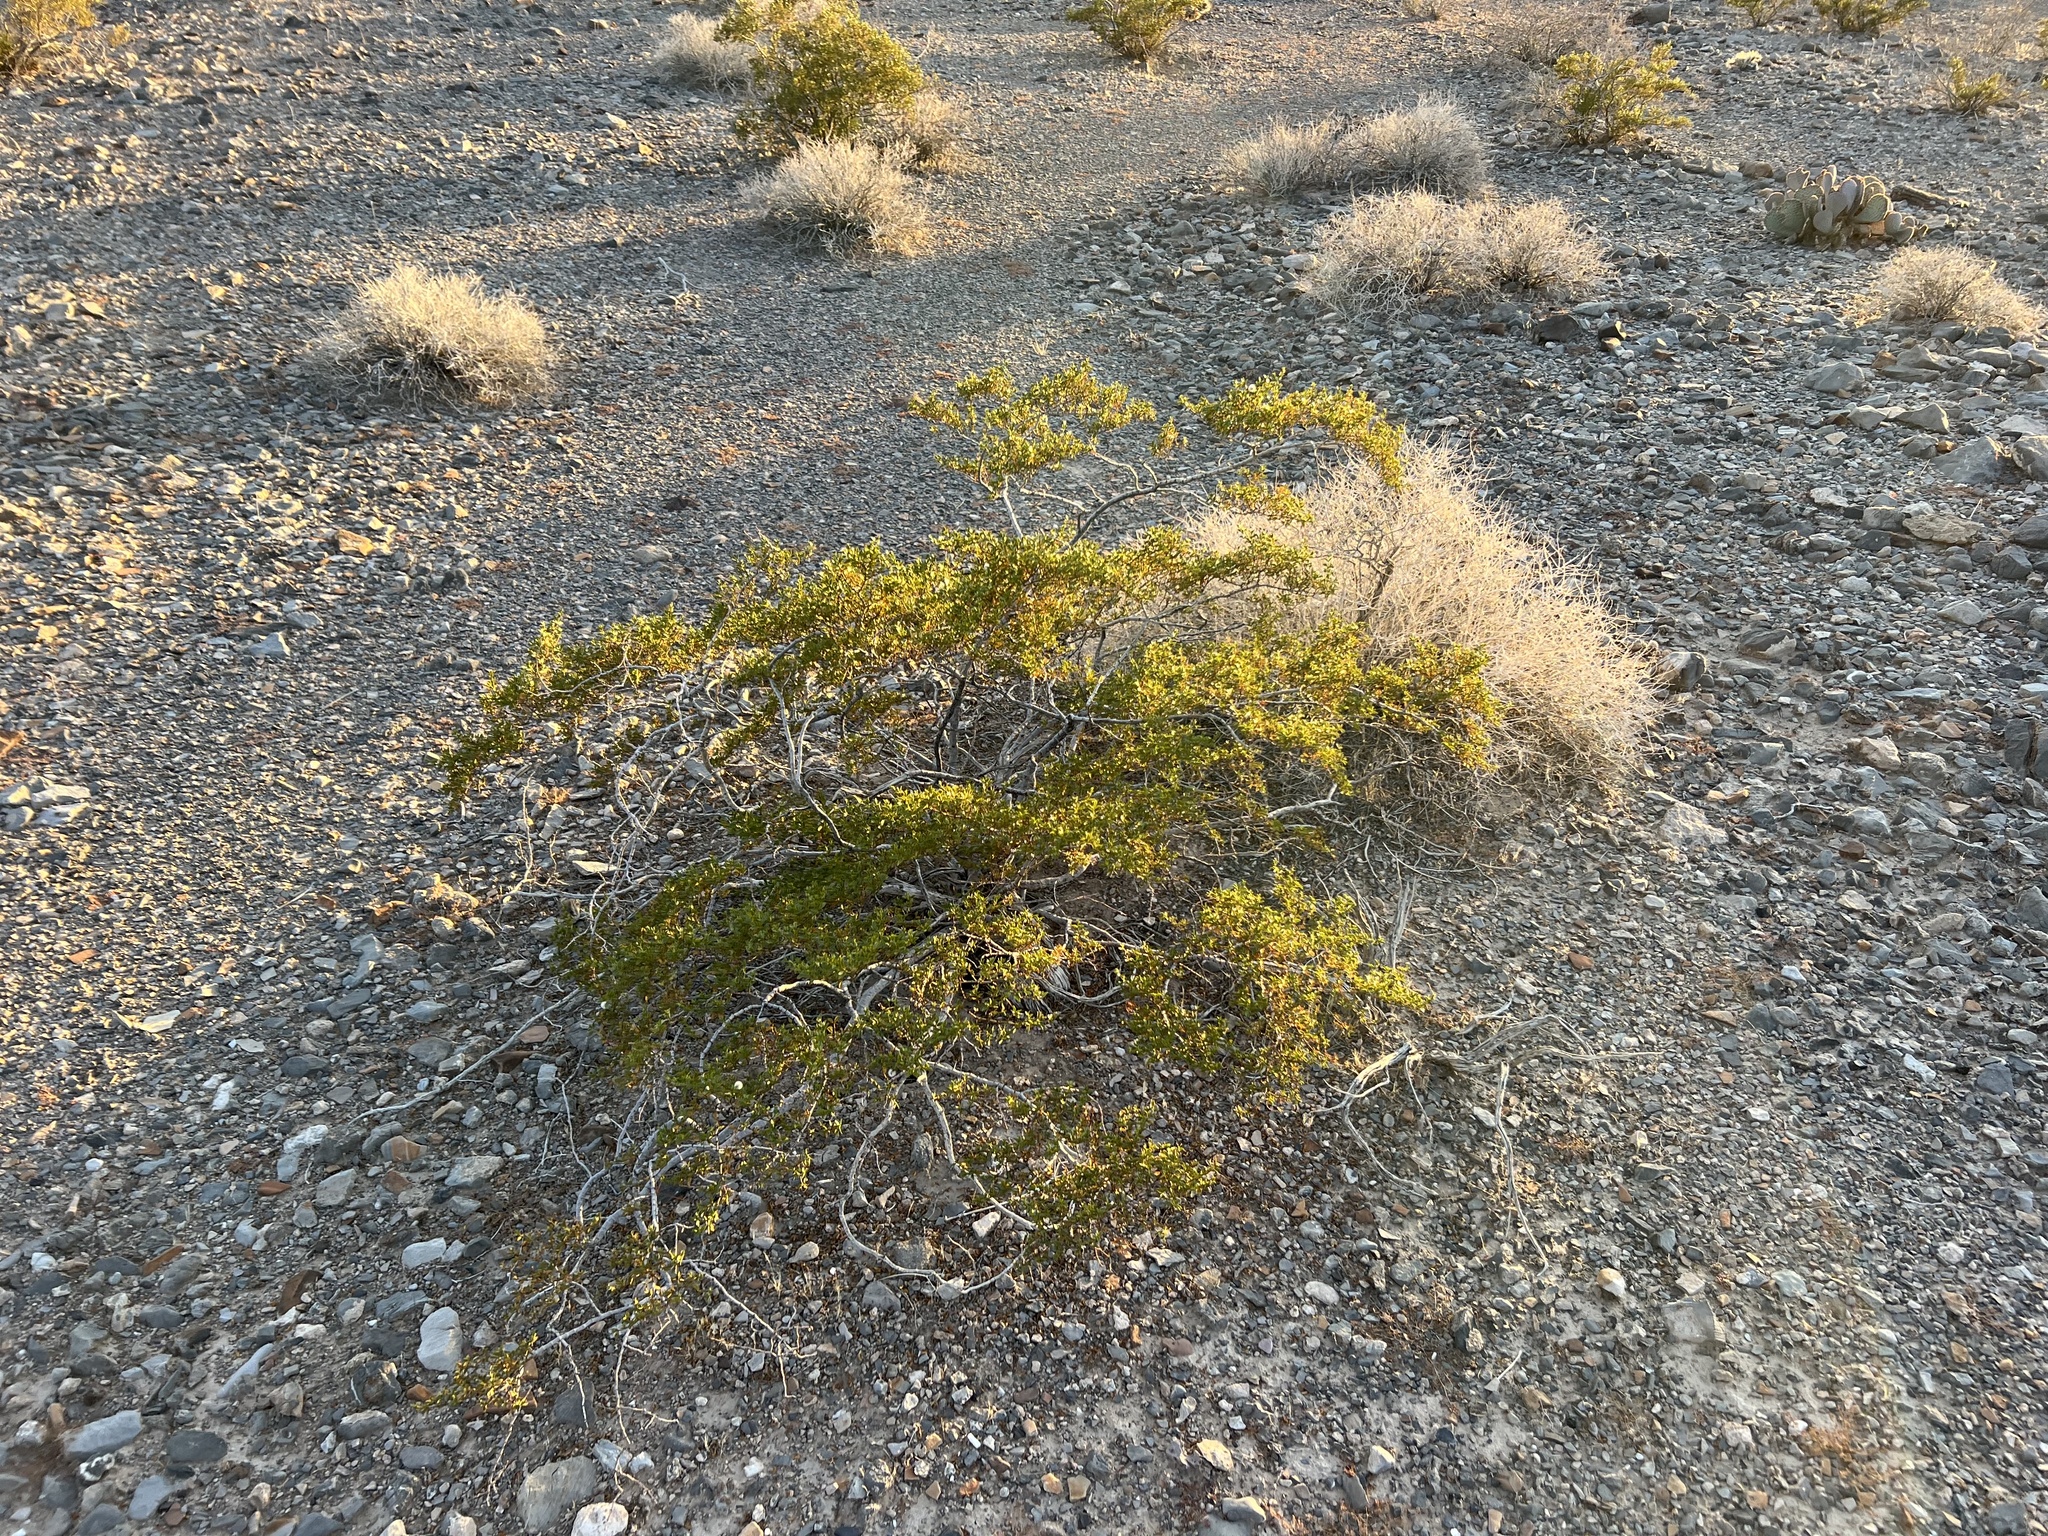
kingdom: Plantae
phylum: Tracheophyta
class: Magnoliopsida
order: Zygophyllales
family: Zygophyllaceae
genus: Larrea
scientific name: Larrea tridentata
